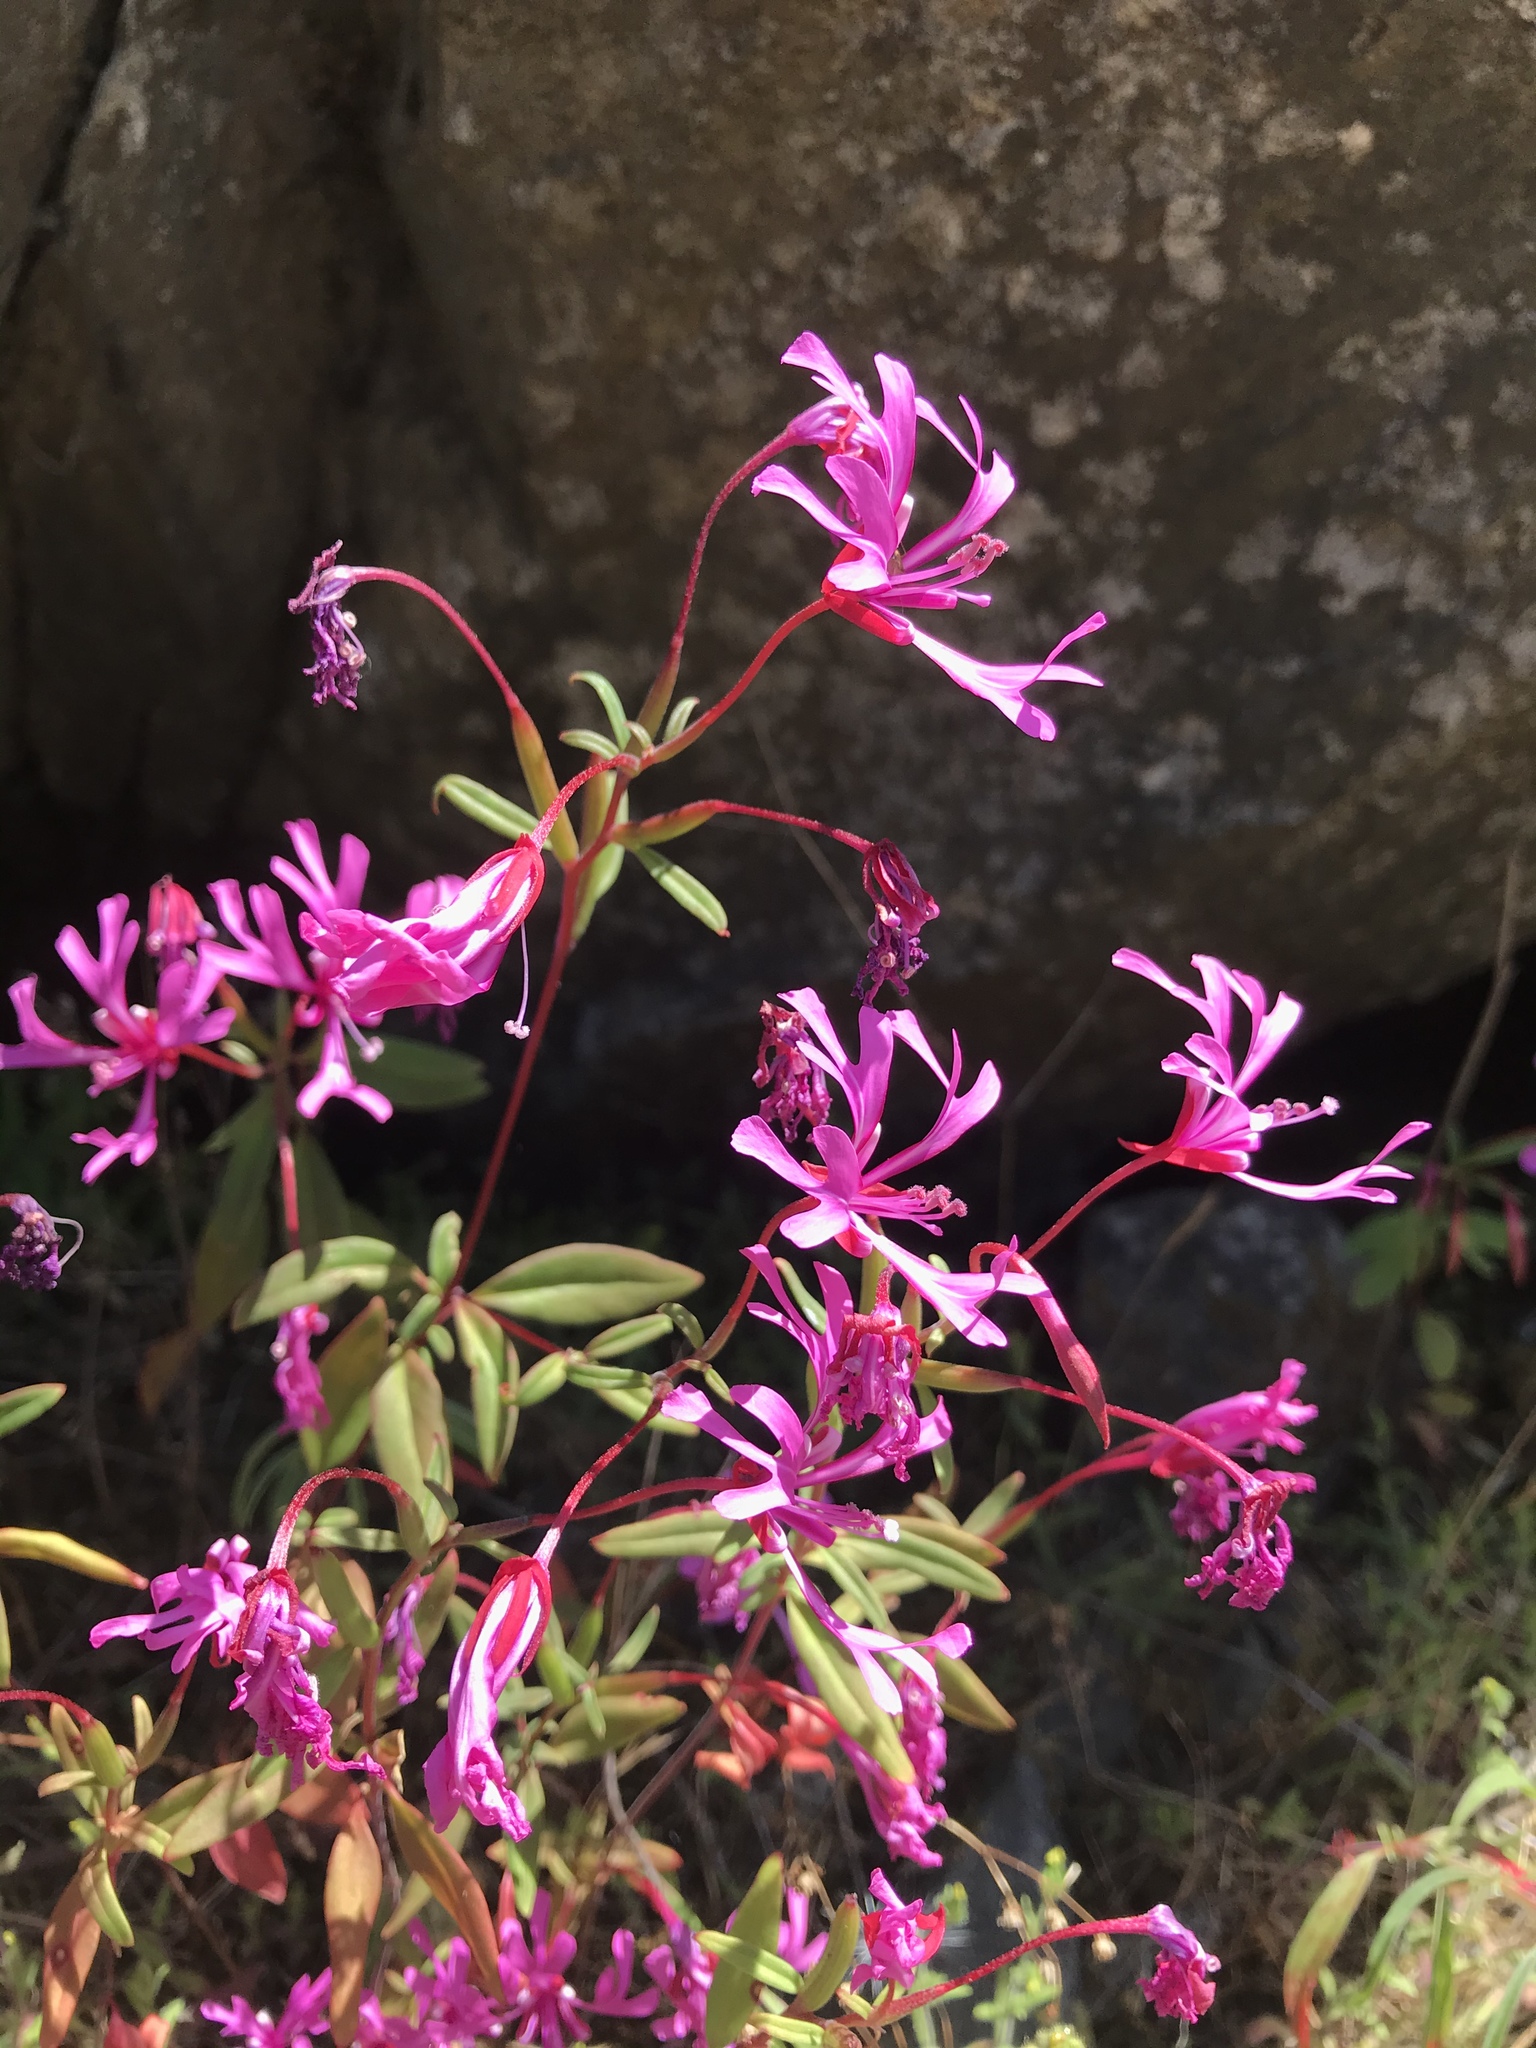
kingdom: Plantae
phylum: Tracheophyta
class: Magnoliopsida
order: Myrtales
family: Onagraceae
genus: Clarkia
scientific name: Clarkia concinna
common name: Red-ribbons
